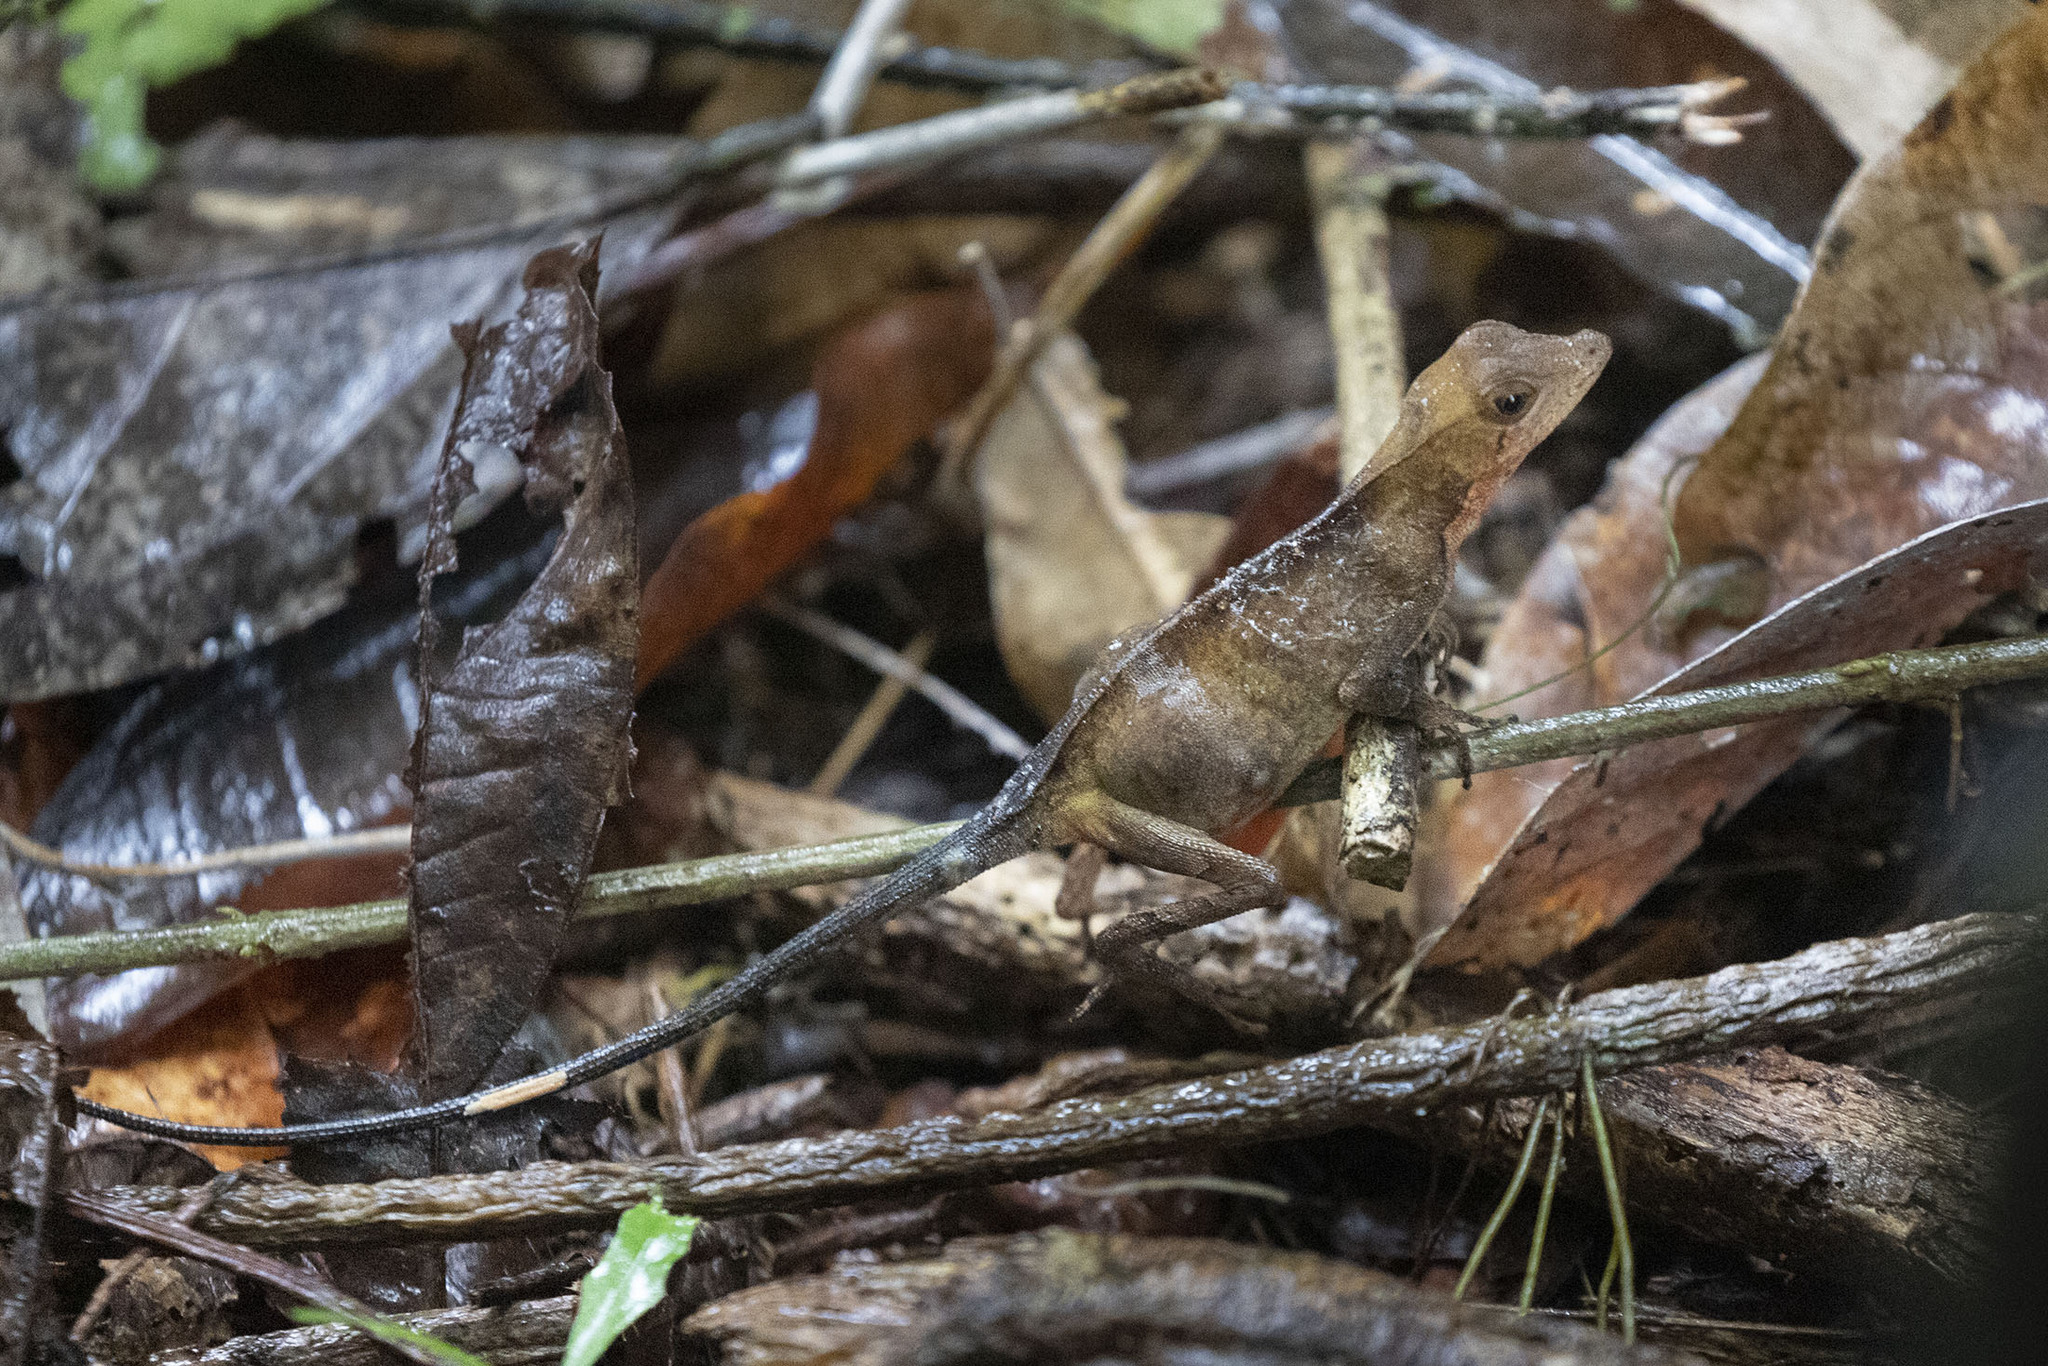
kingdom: Animalia
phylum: Chordata
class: Squamata
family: Dactyloidae
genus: Anolis
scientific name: Anolis chrysolepis
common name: Goldenscale anole
